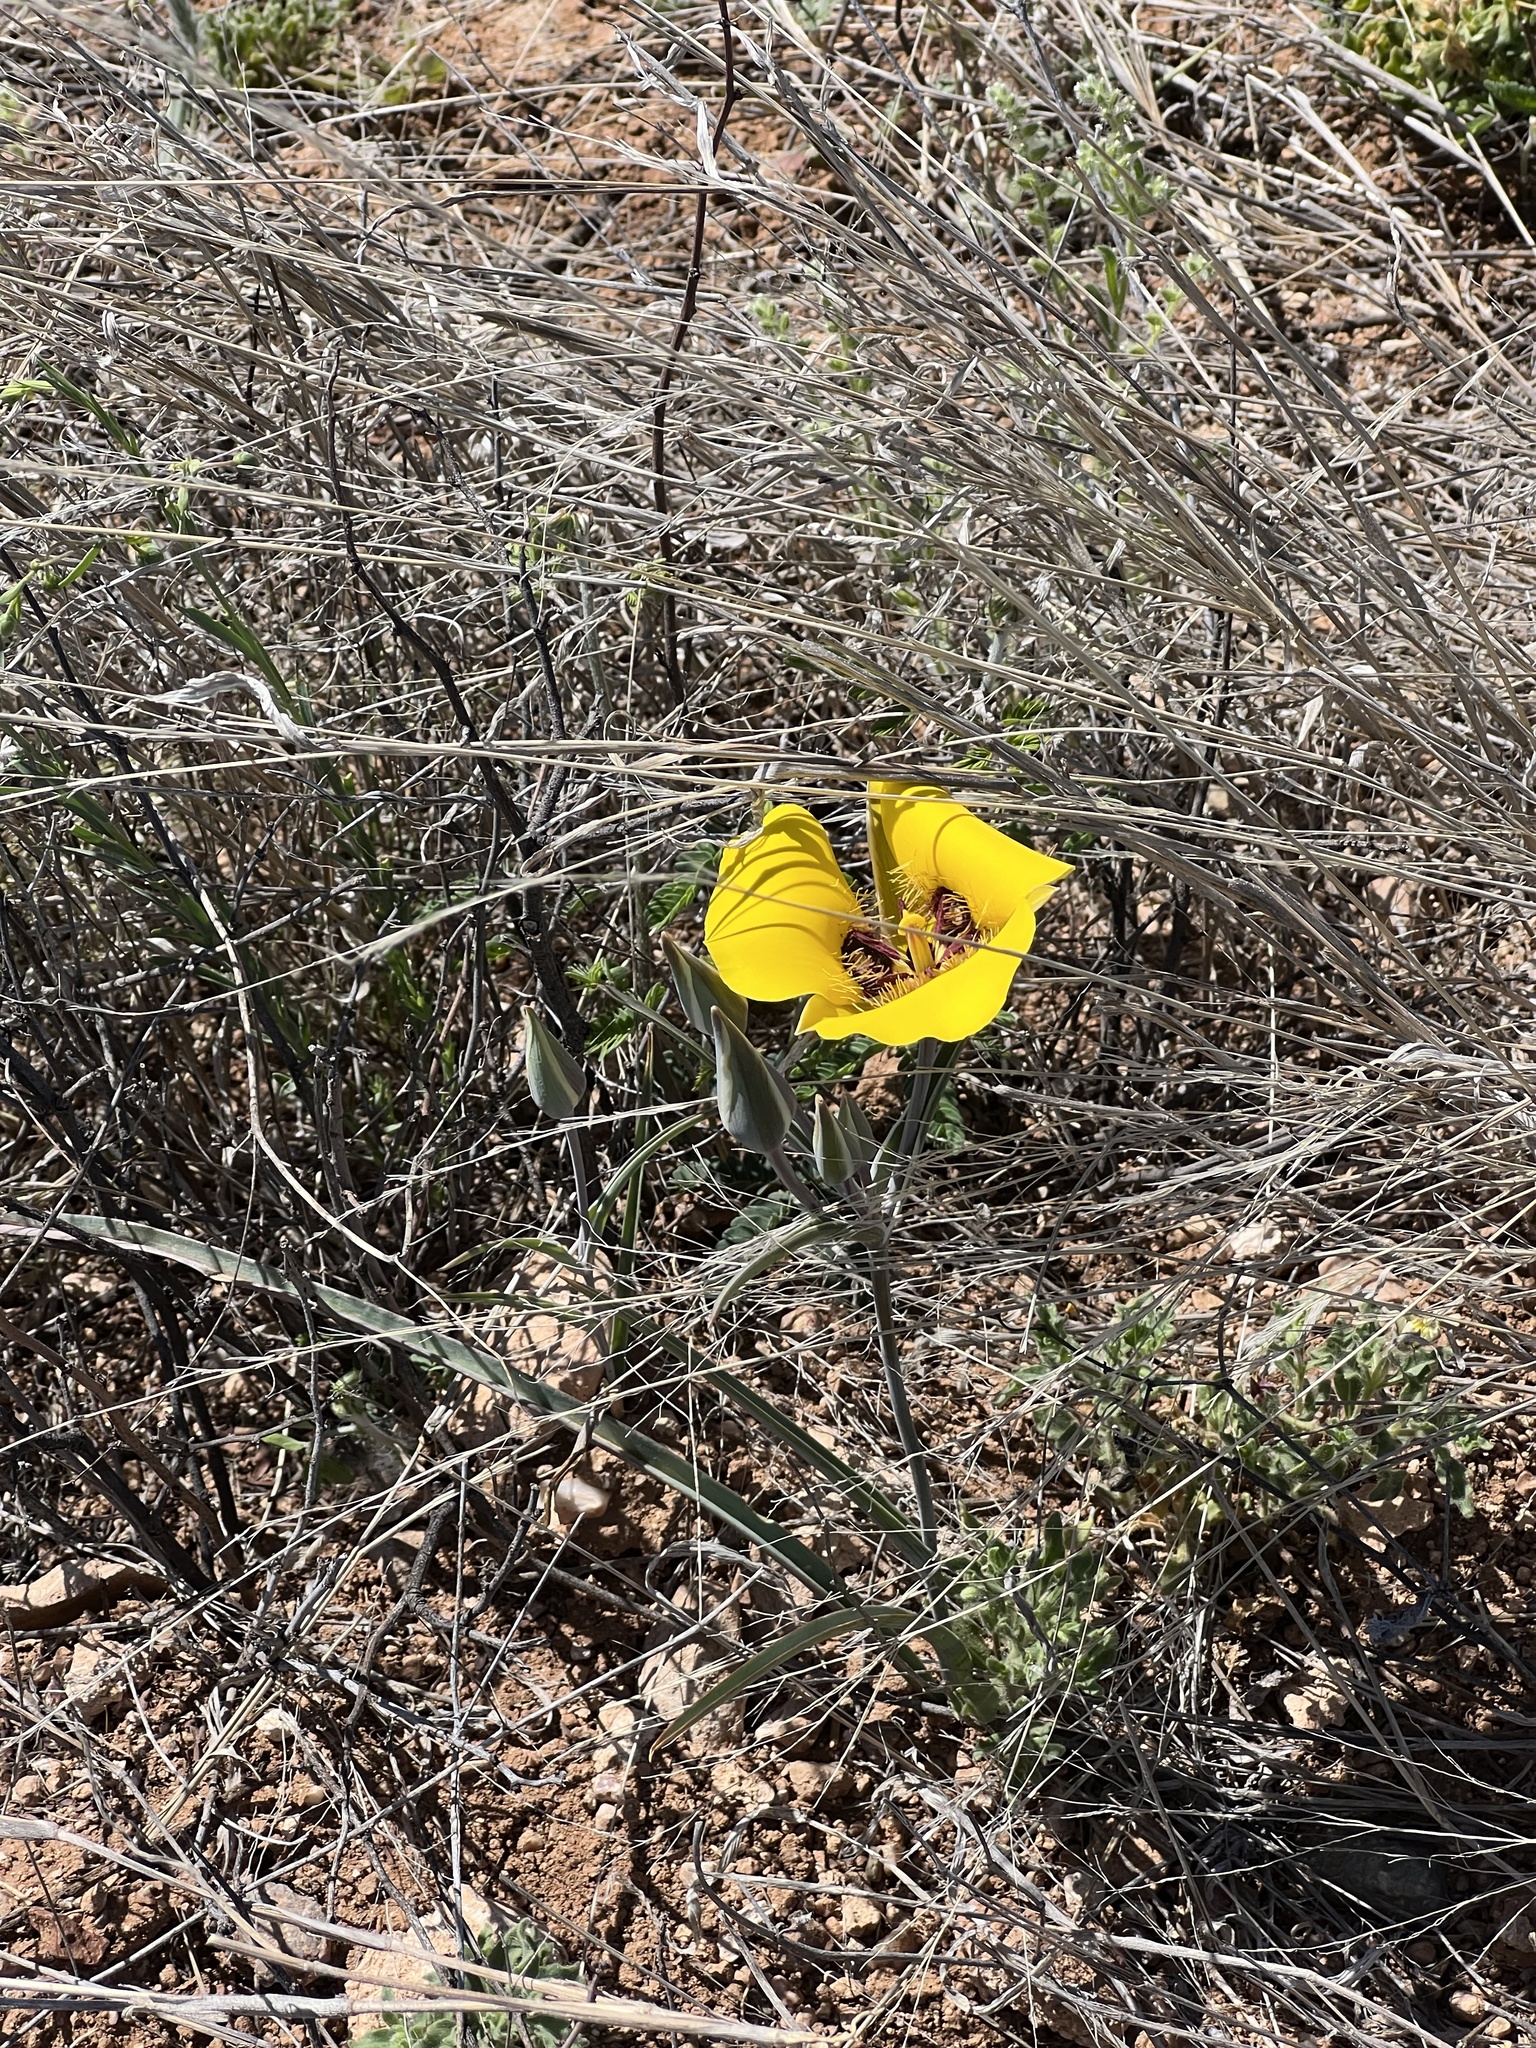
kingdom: Plantae
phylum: Tracheophyta
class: Liliopsida
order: Liliales
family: Liliaceae
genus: Calochortus
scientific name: Calochortus kennedyi
